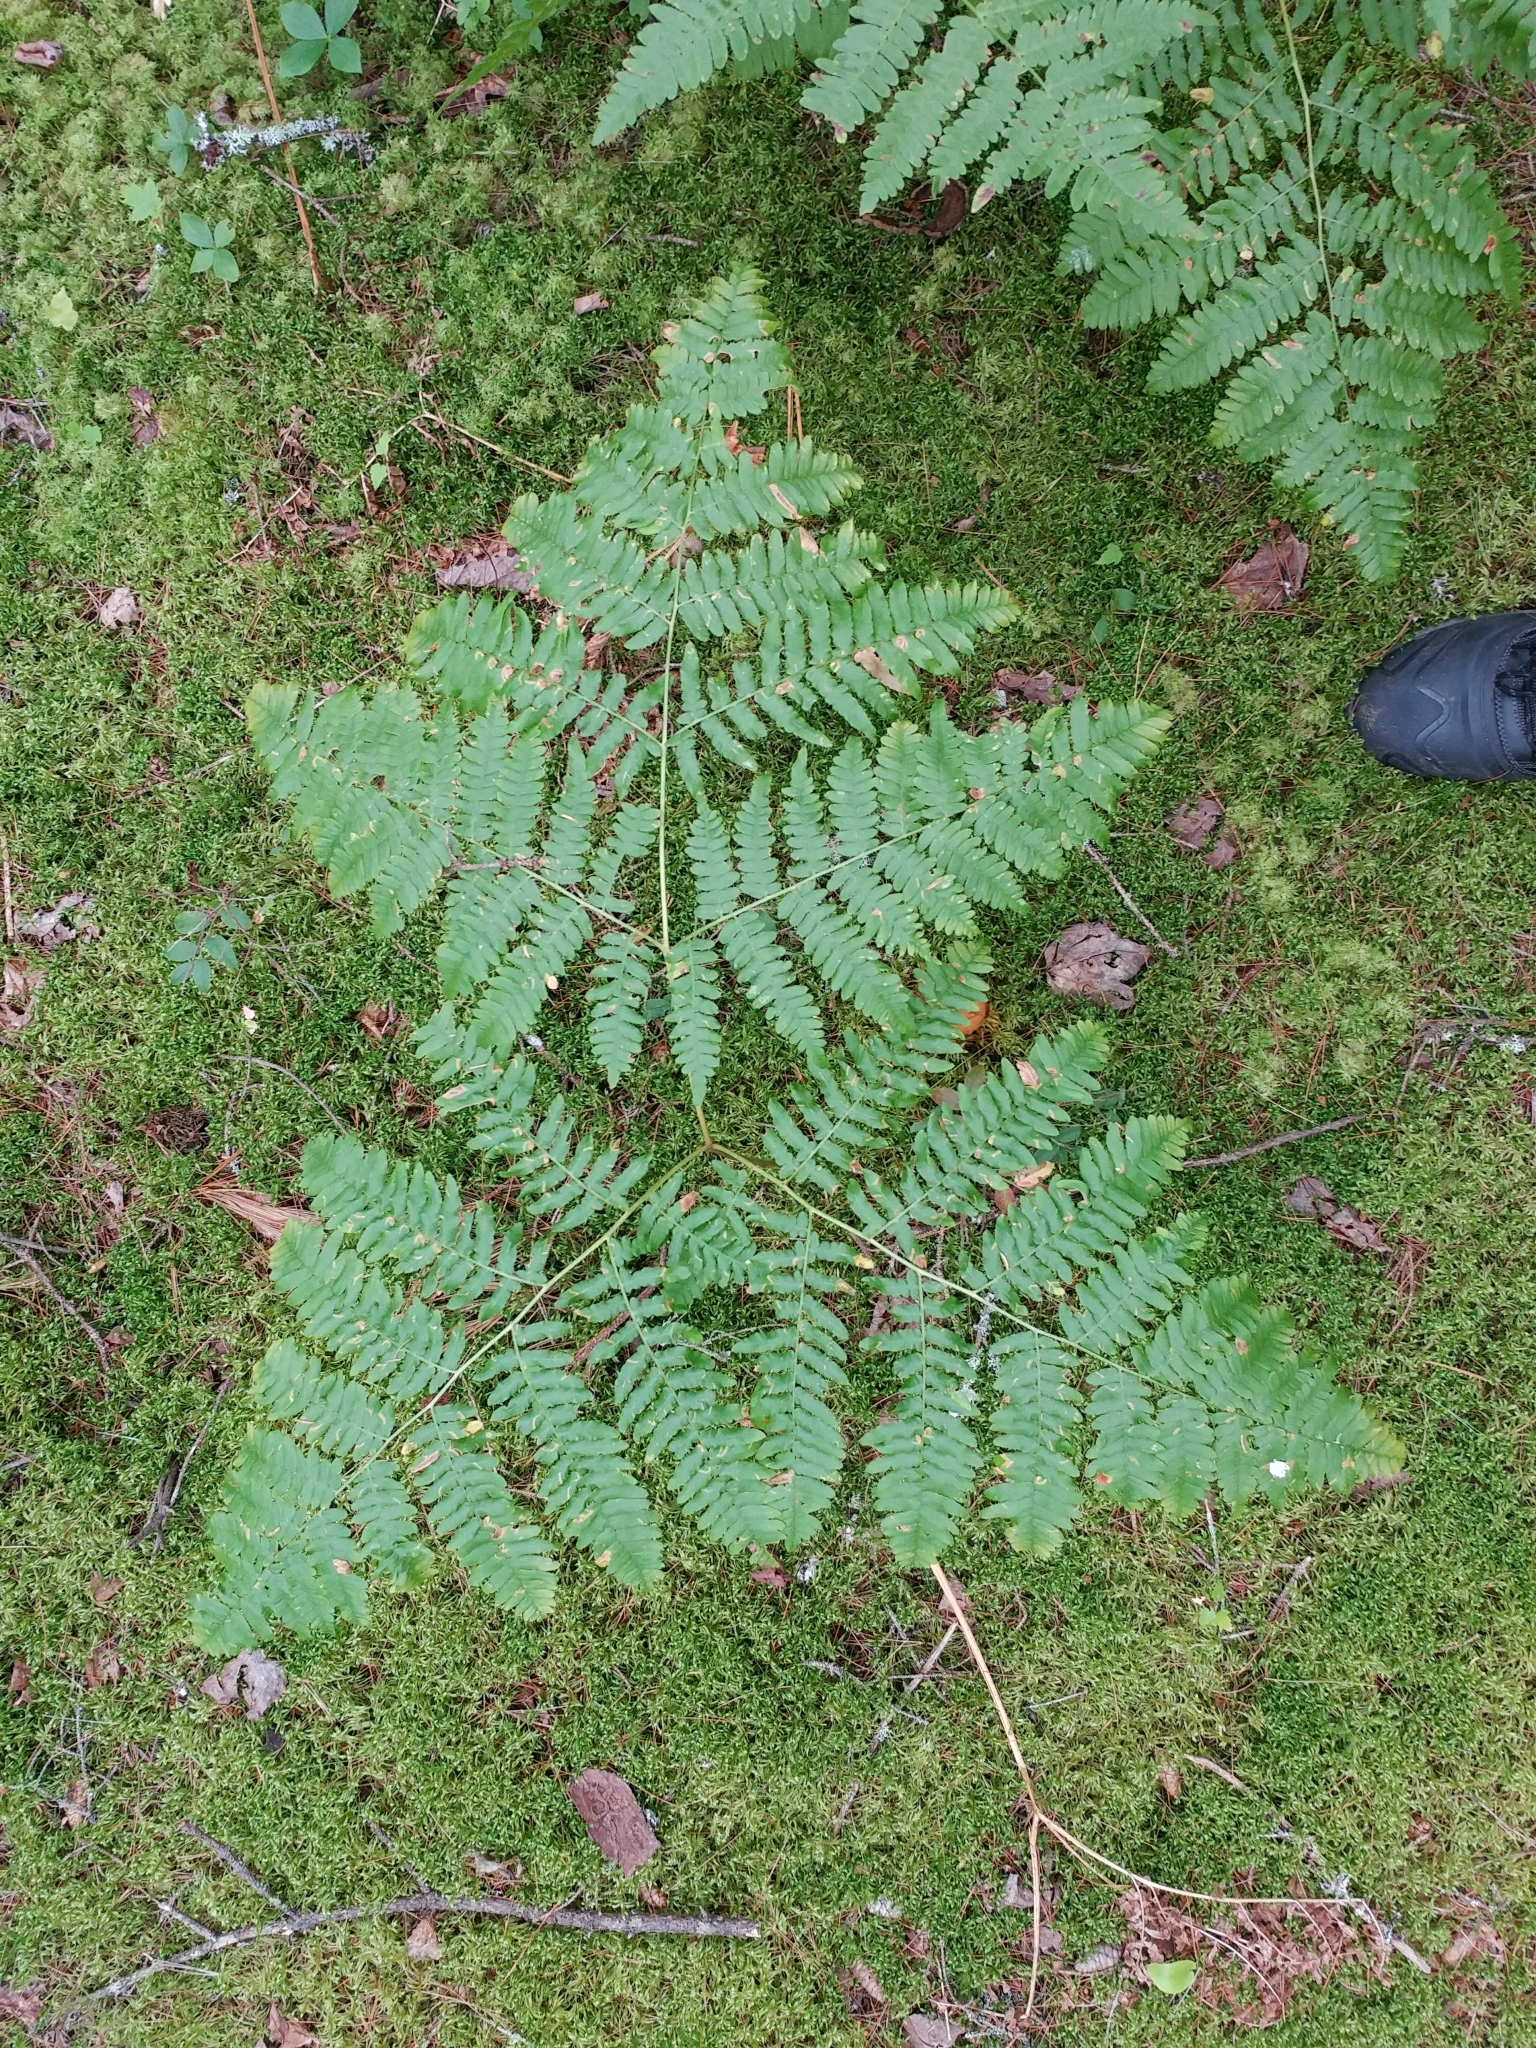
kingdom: Plantae
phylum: Tracheophyta
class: Polypodiopsida
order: Polypodiales
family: Dennstaedtiaceae
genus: Pteridium
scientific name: Pteridium aquilinum
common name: Bracken
